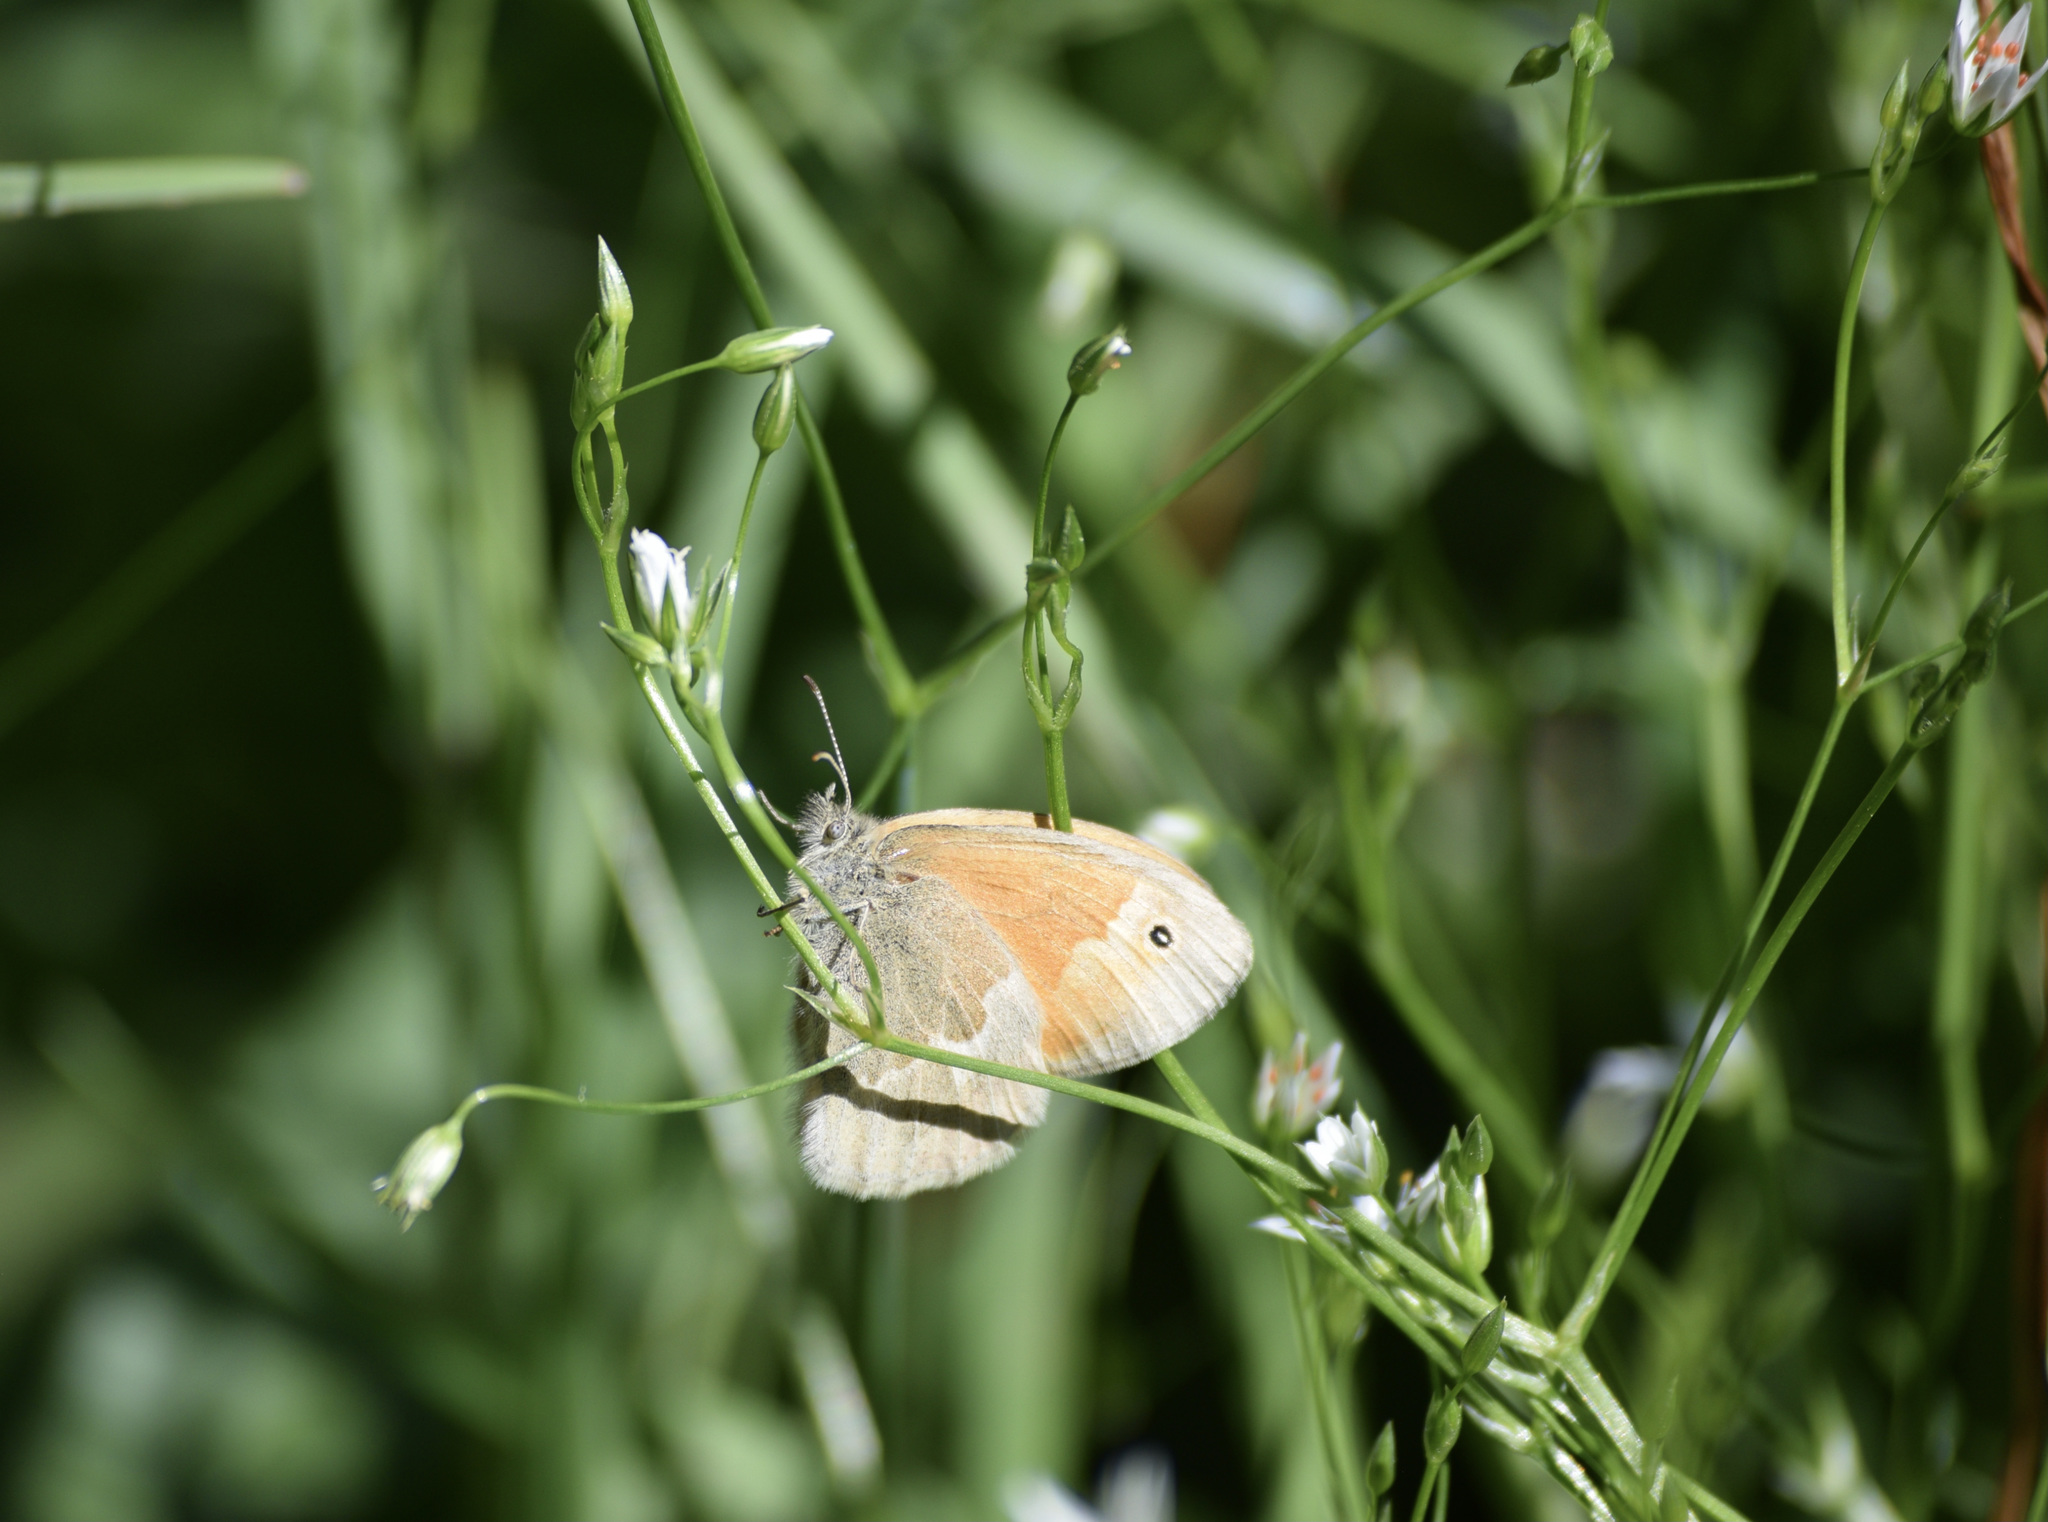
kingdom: Animalia
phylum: Arthropoda
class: Insecta
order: Lepidoptera
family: Nymphalidae
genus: Coenonympha
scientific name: Coenonympha california
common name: Common ringlet
